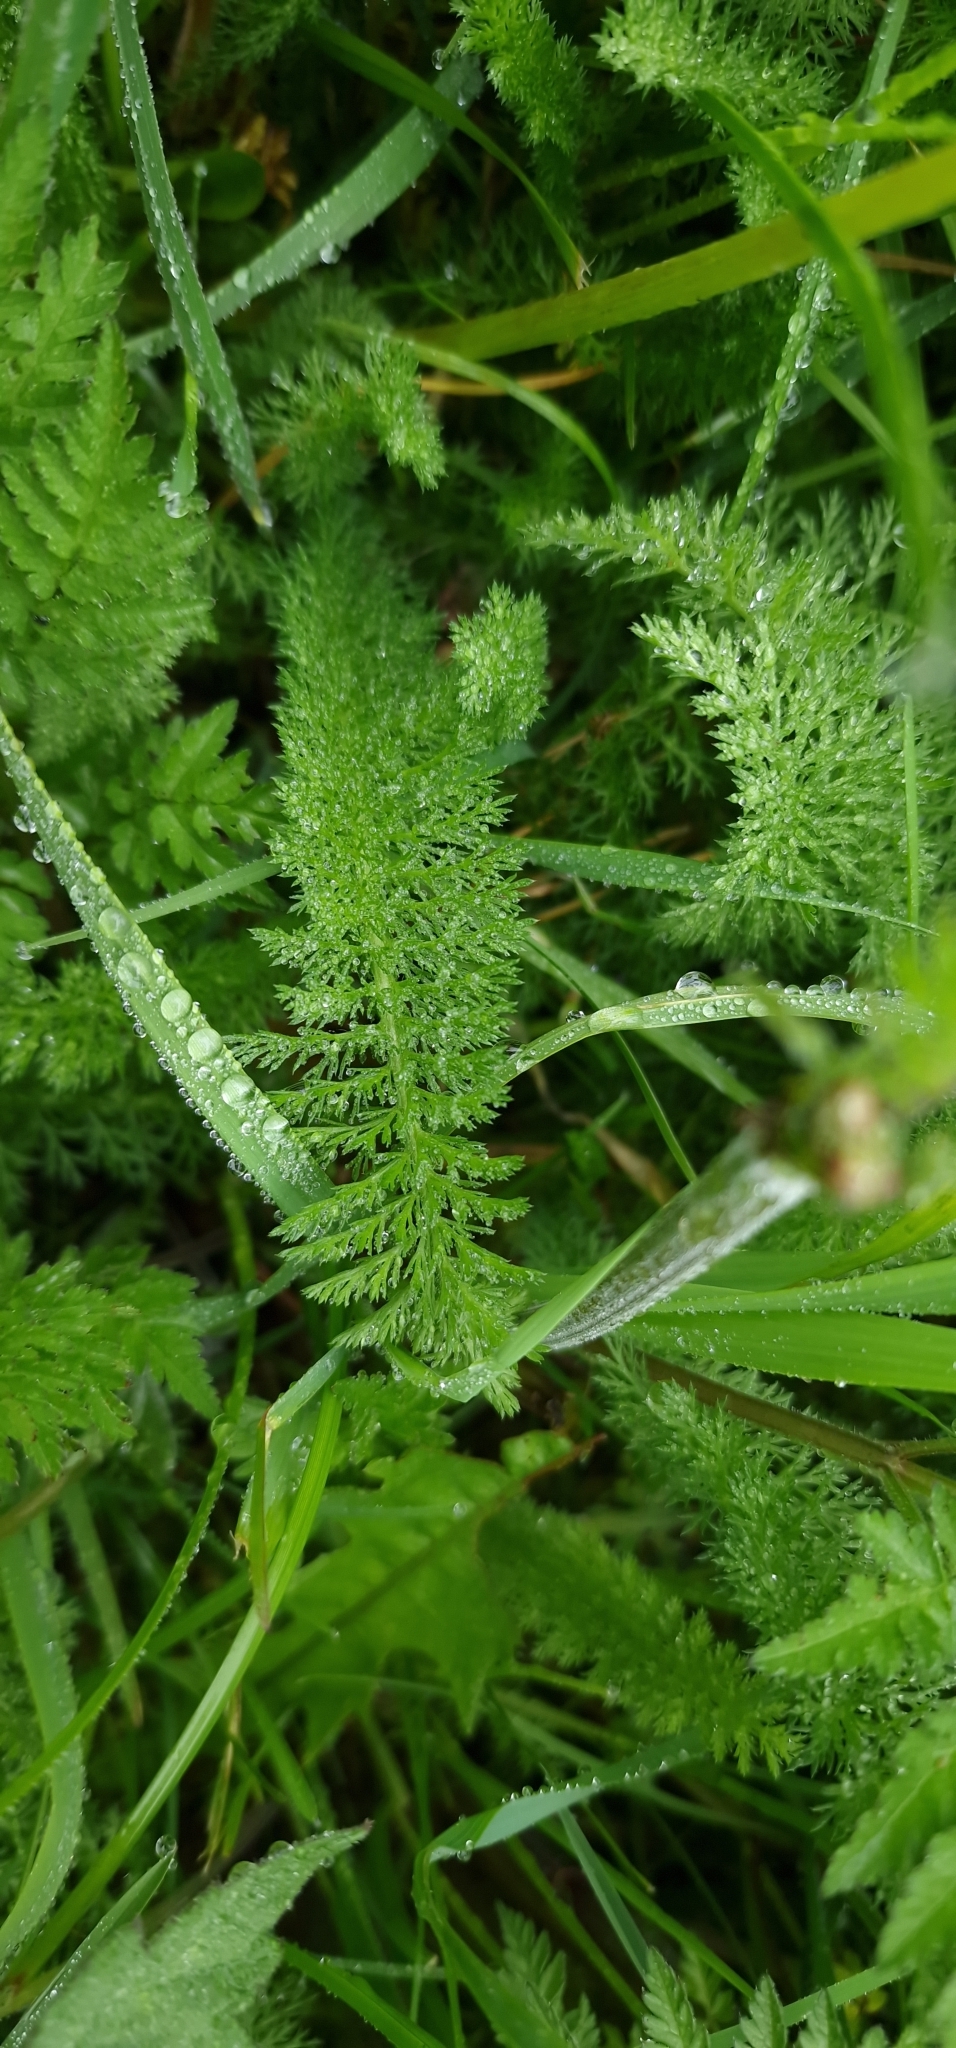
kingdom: Plantae
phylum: Tracheophyta
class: Magnoliopsida
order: Asterales
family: Asteraceae
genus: Achillea
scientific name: Achillea millefolium
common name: Yarrow
